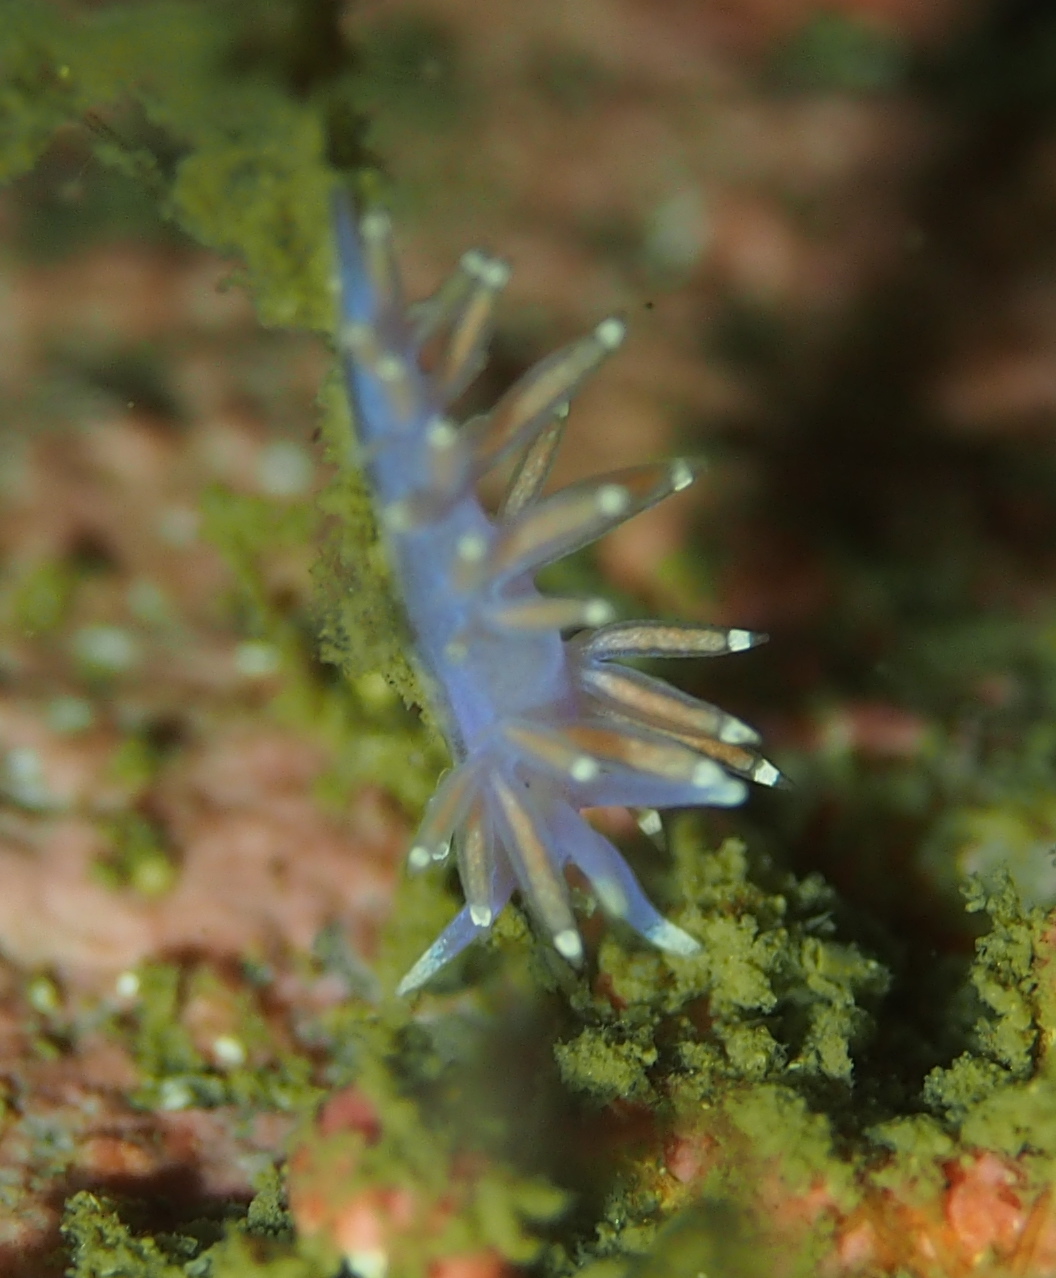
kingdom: Animalia
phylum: Mollusca
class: Gastropoda
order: Nudibranchia
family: Flabellinidae
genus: Edmundsella
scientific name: Edmundsella pedata
